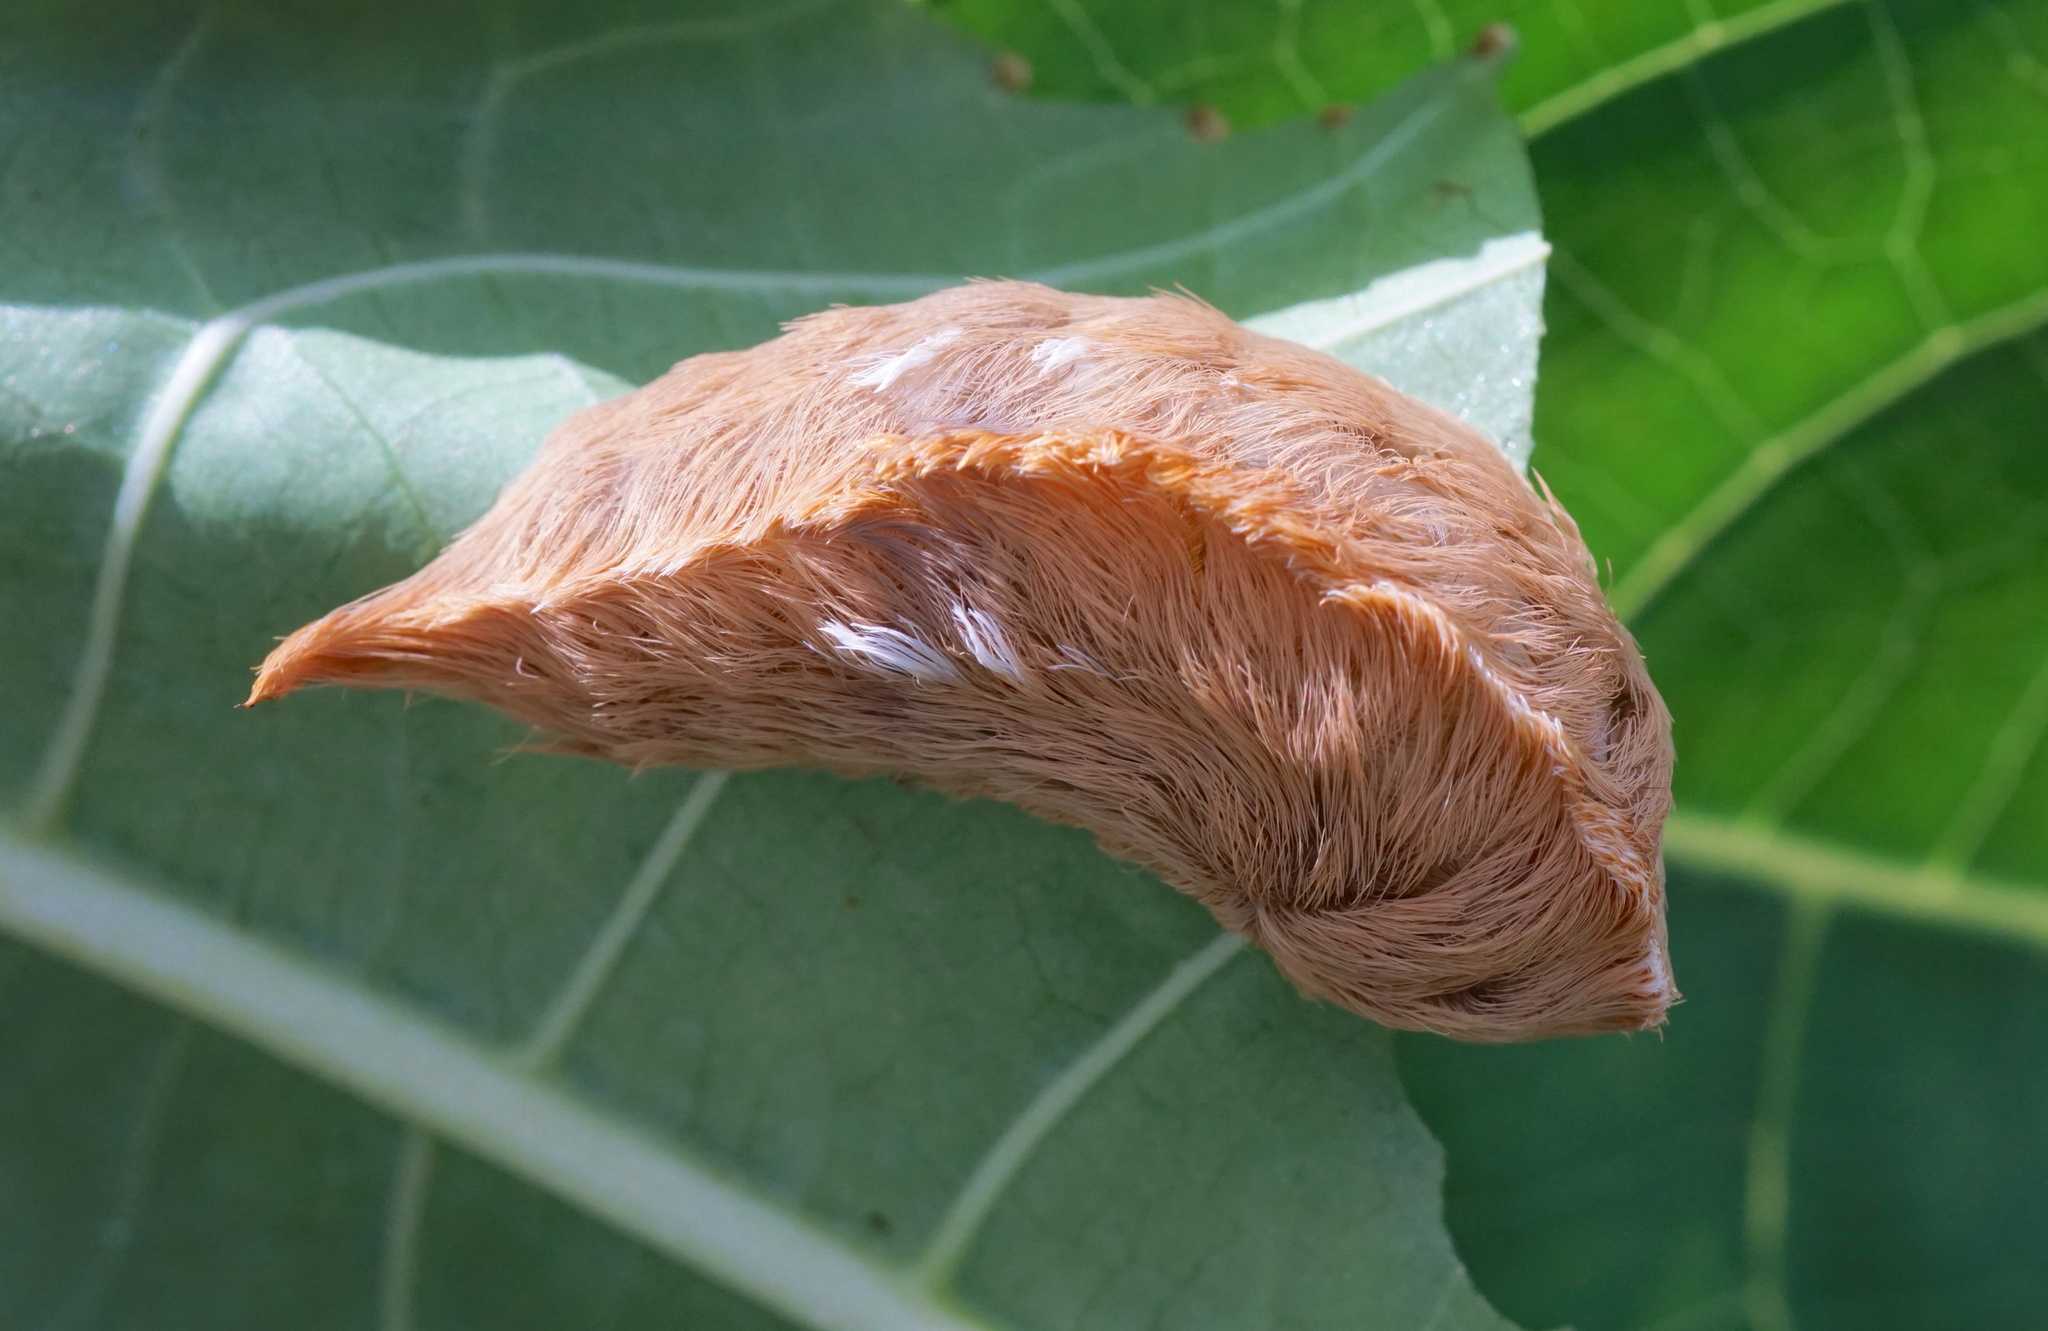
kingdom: Animalia
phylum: Arthropoda
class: Insecta
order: Lepidoptera
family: Megalopygidae
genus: Megalopyge
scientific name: Megalopyge opercularis
